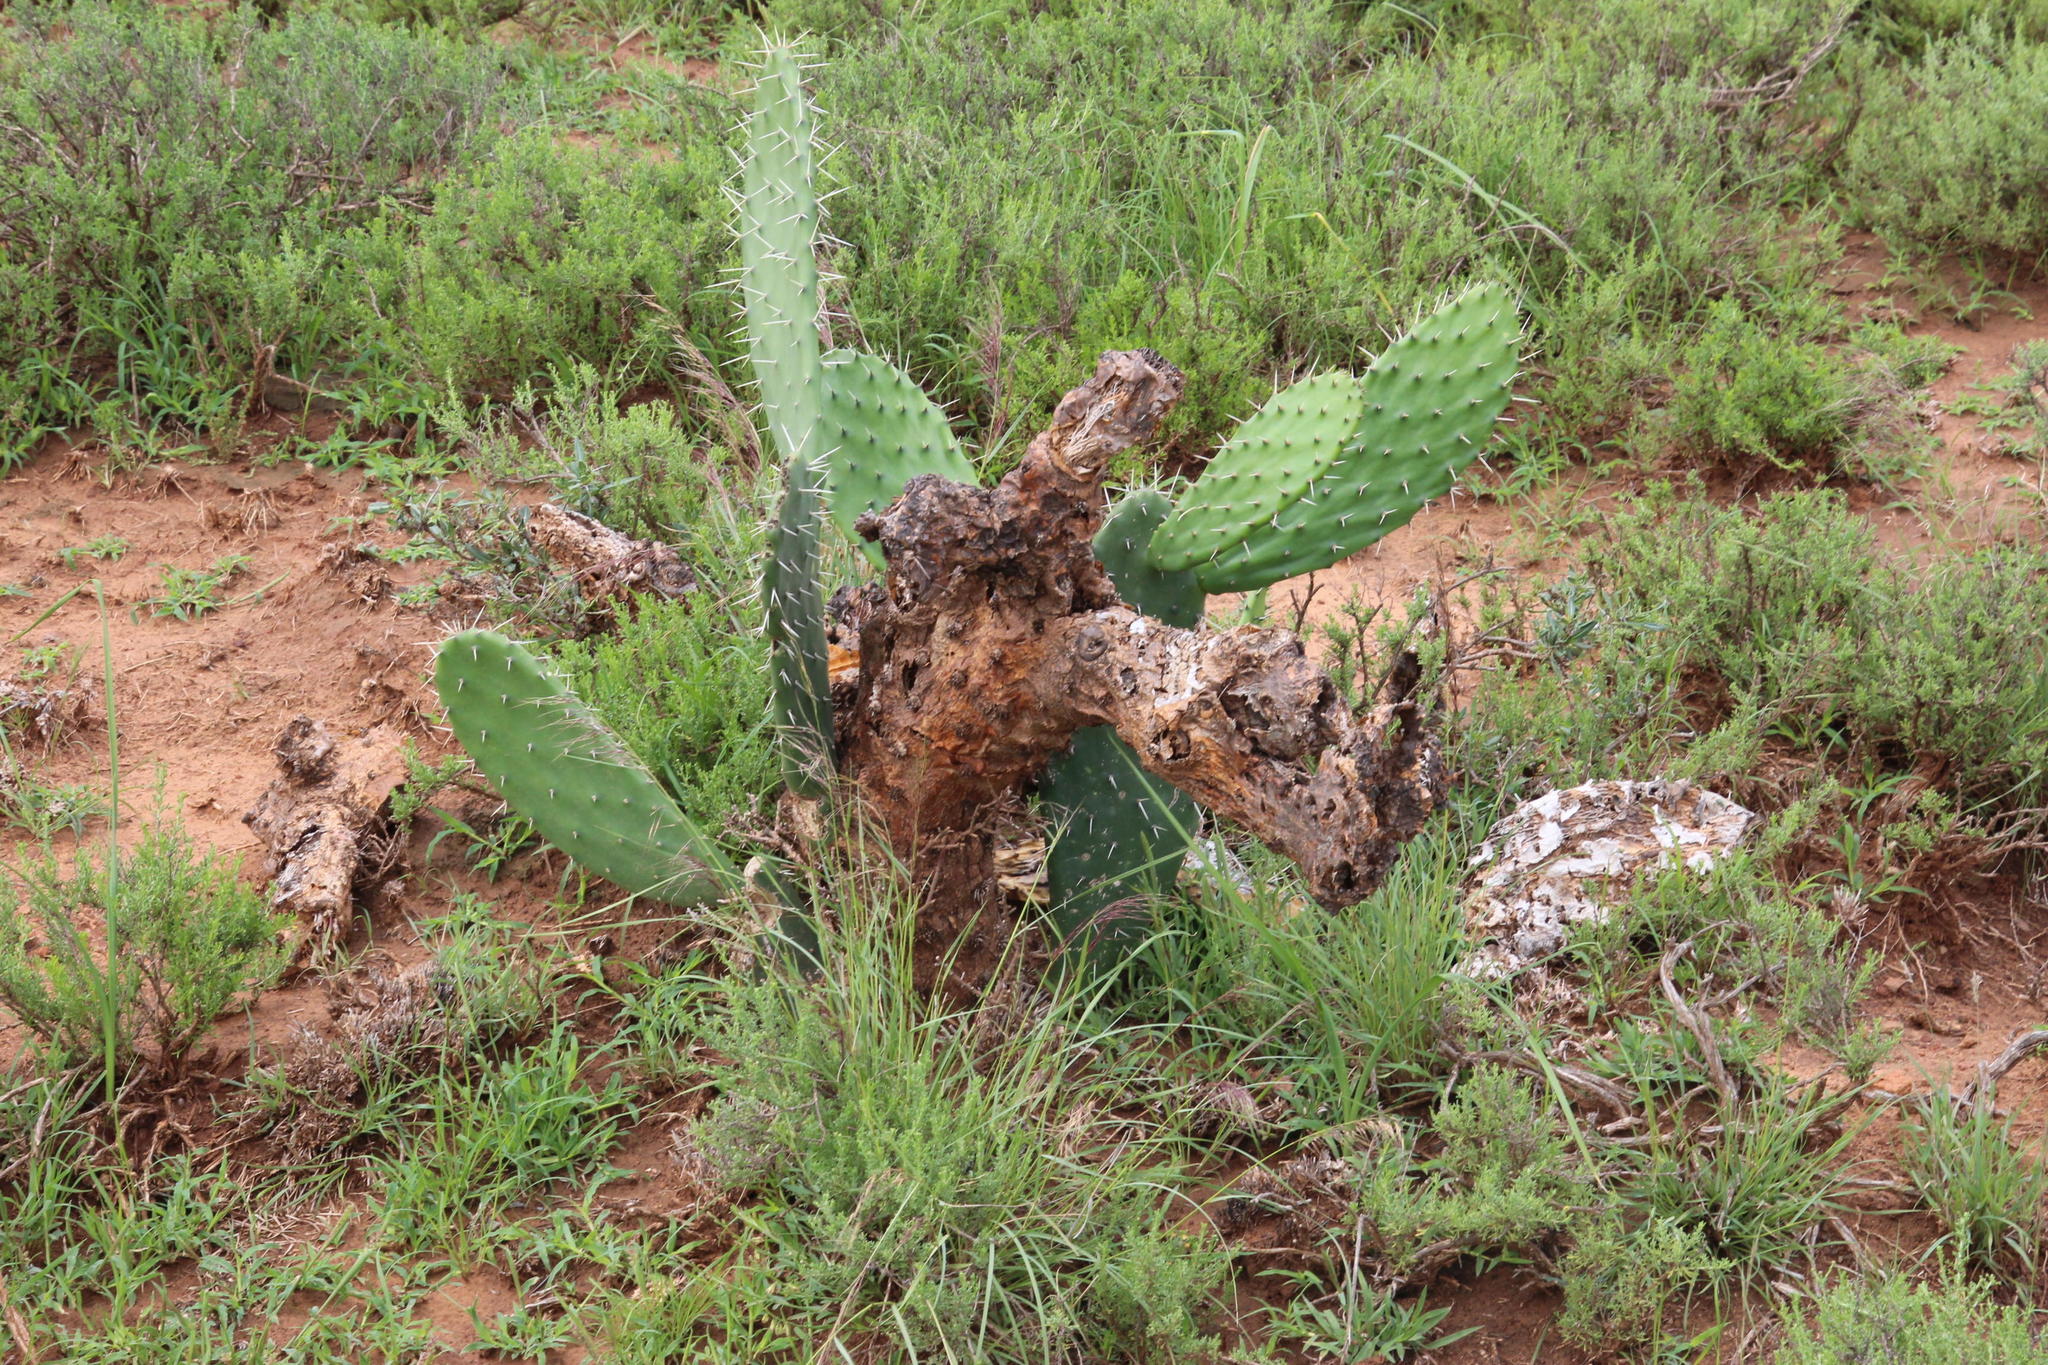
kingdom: Plantae
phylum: Tracheophyta
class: Magnoliopsida
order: Caryophyllales
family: Cactaceae
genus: Opuntia
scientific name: Opuntia ficus-indica
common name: Barbary fig
